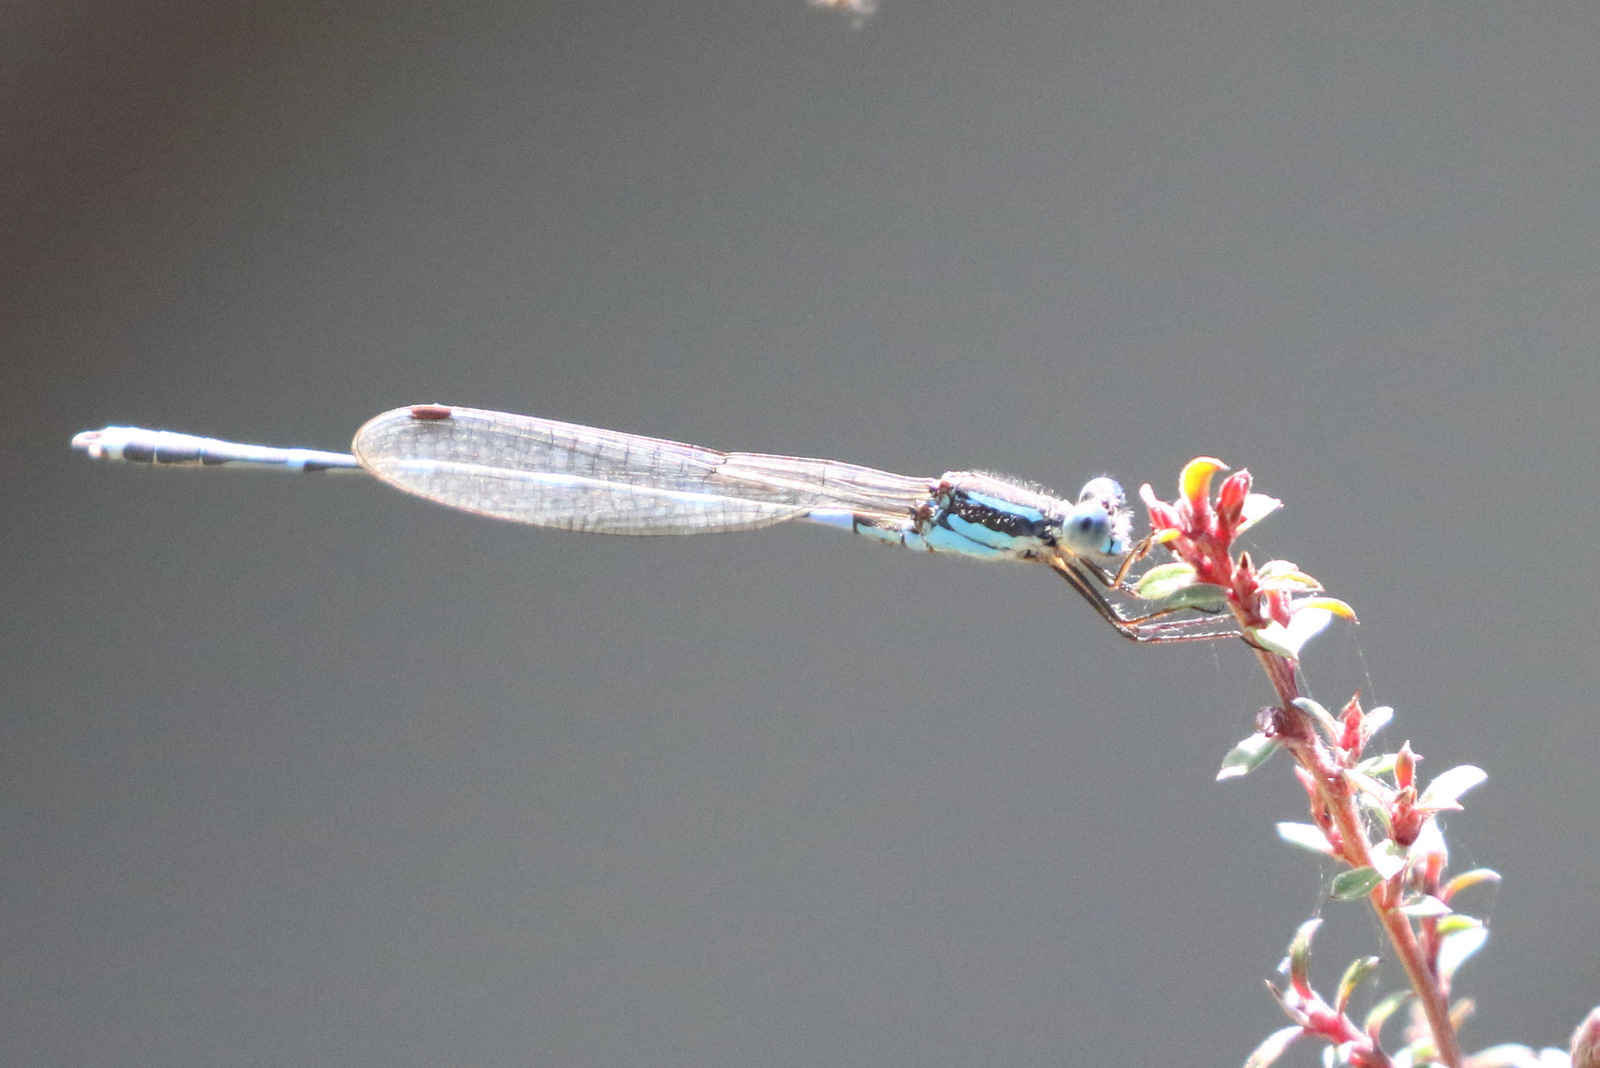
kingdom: Animalia
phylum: Arthropoda
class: Insecta
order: Odonata
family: Lestidae
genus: Austrolestes
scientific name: Austrolestes leda
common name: Wandering ringtail
